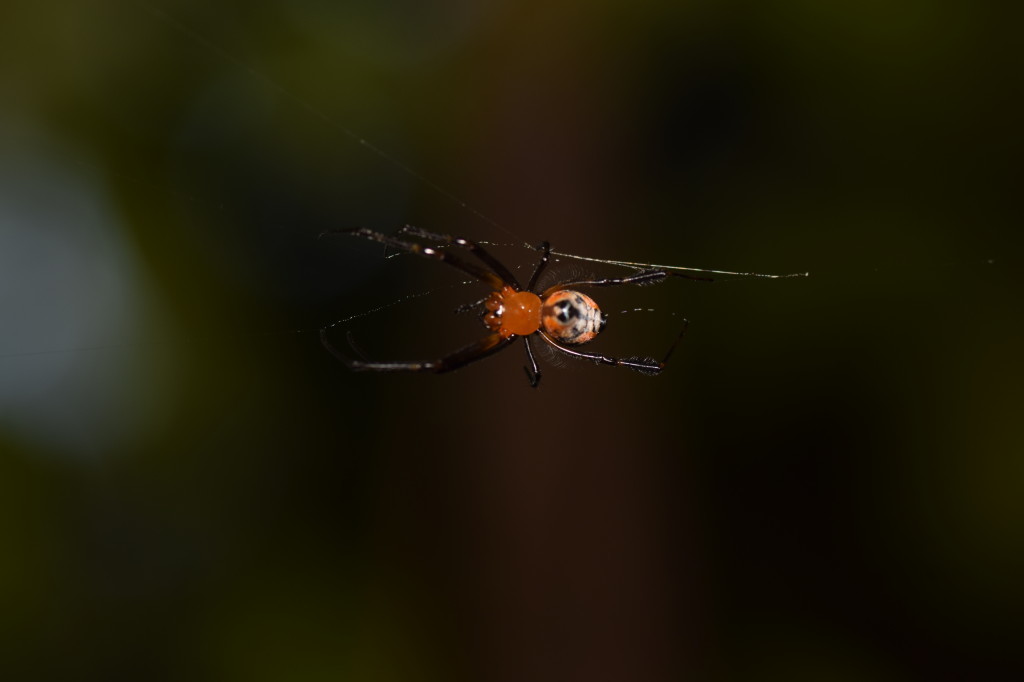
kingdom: Animalia
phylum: Arthropoda
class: Arachnida
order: Araneae
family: Tetragnathidae
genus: Leucauge
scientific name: Leucauge fastigata
